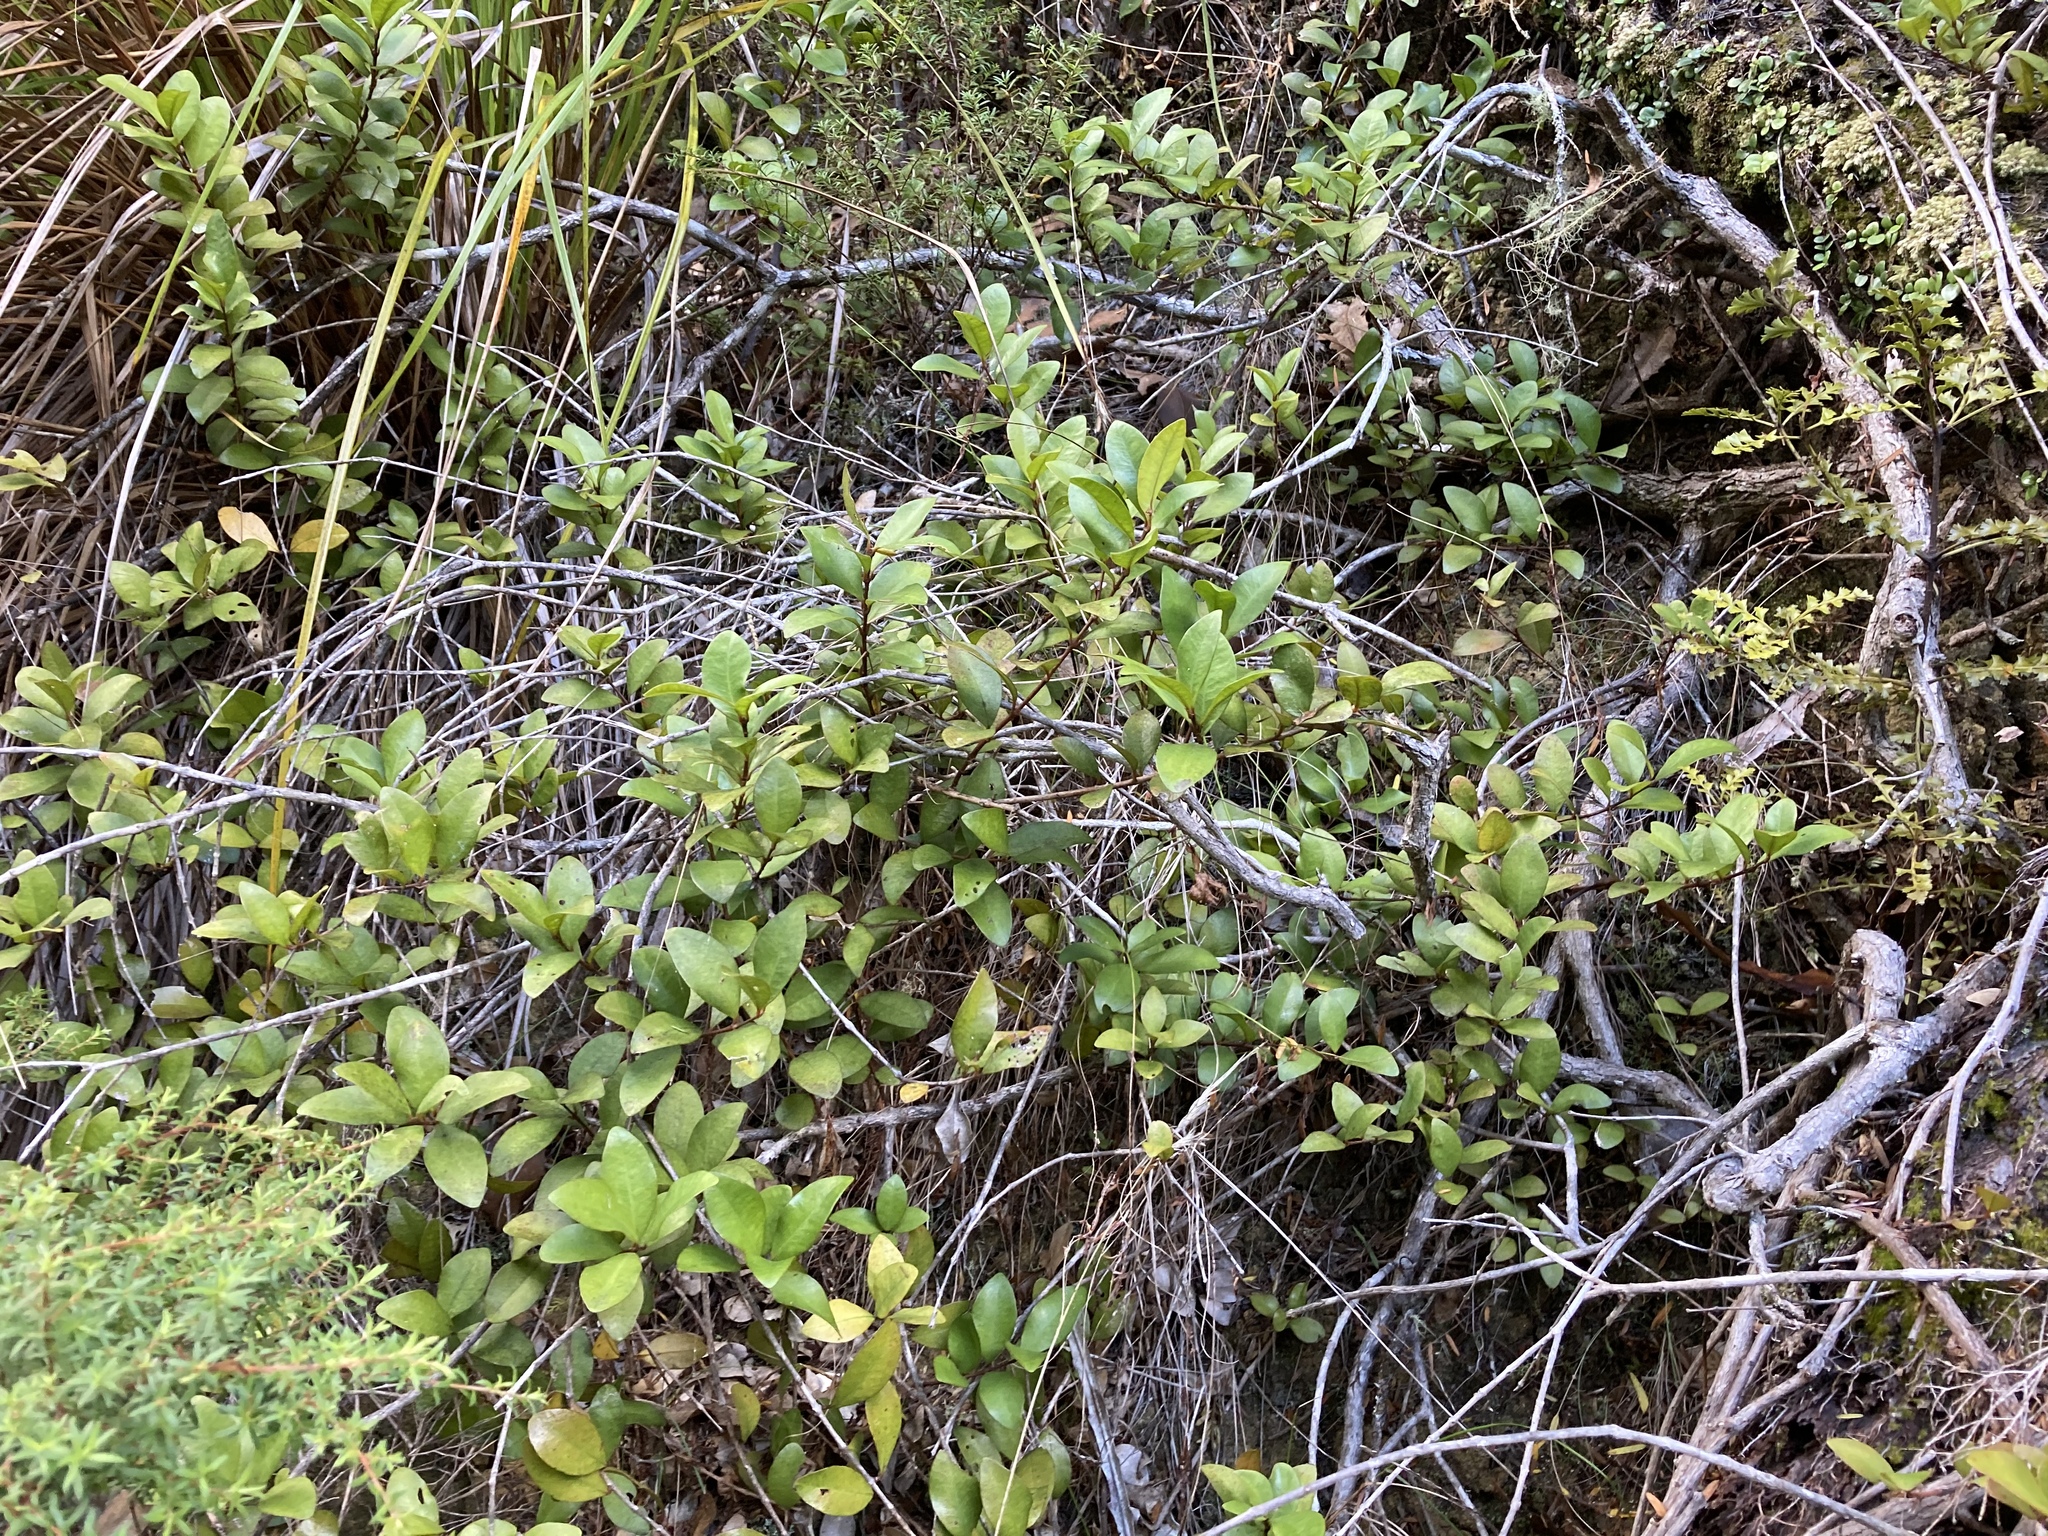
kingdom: Plantae
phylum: Tracheophyta
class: Magnoliopsida
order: Myrtales
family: Myrtaceae
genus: Metrosideros
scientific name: Metrosideros fulgens
